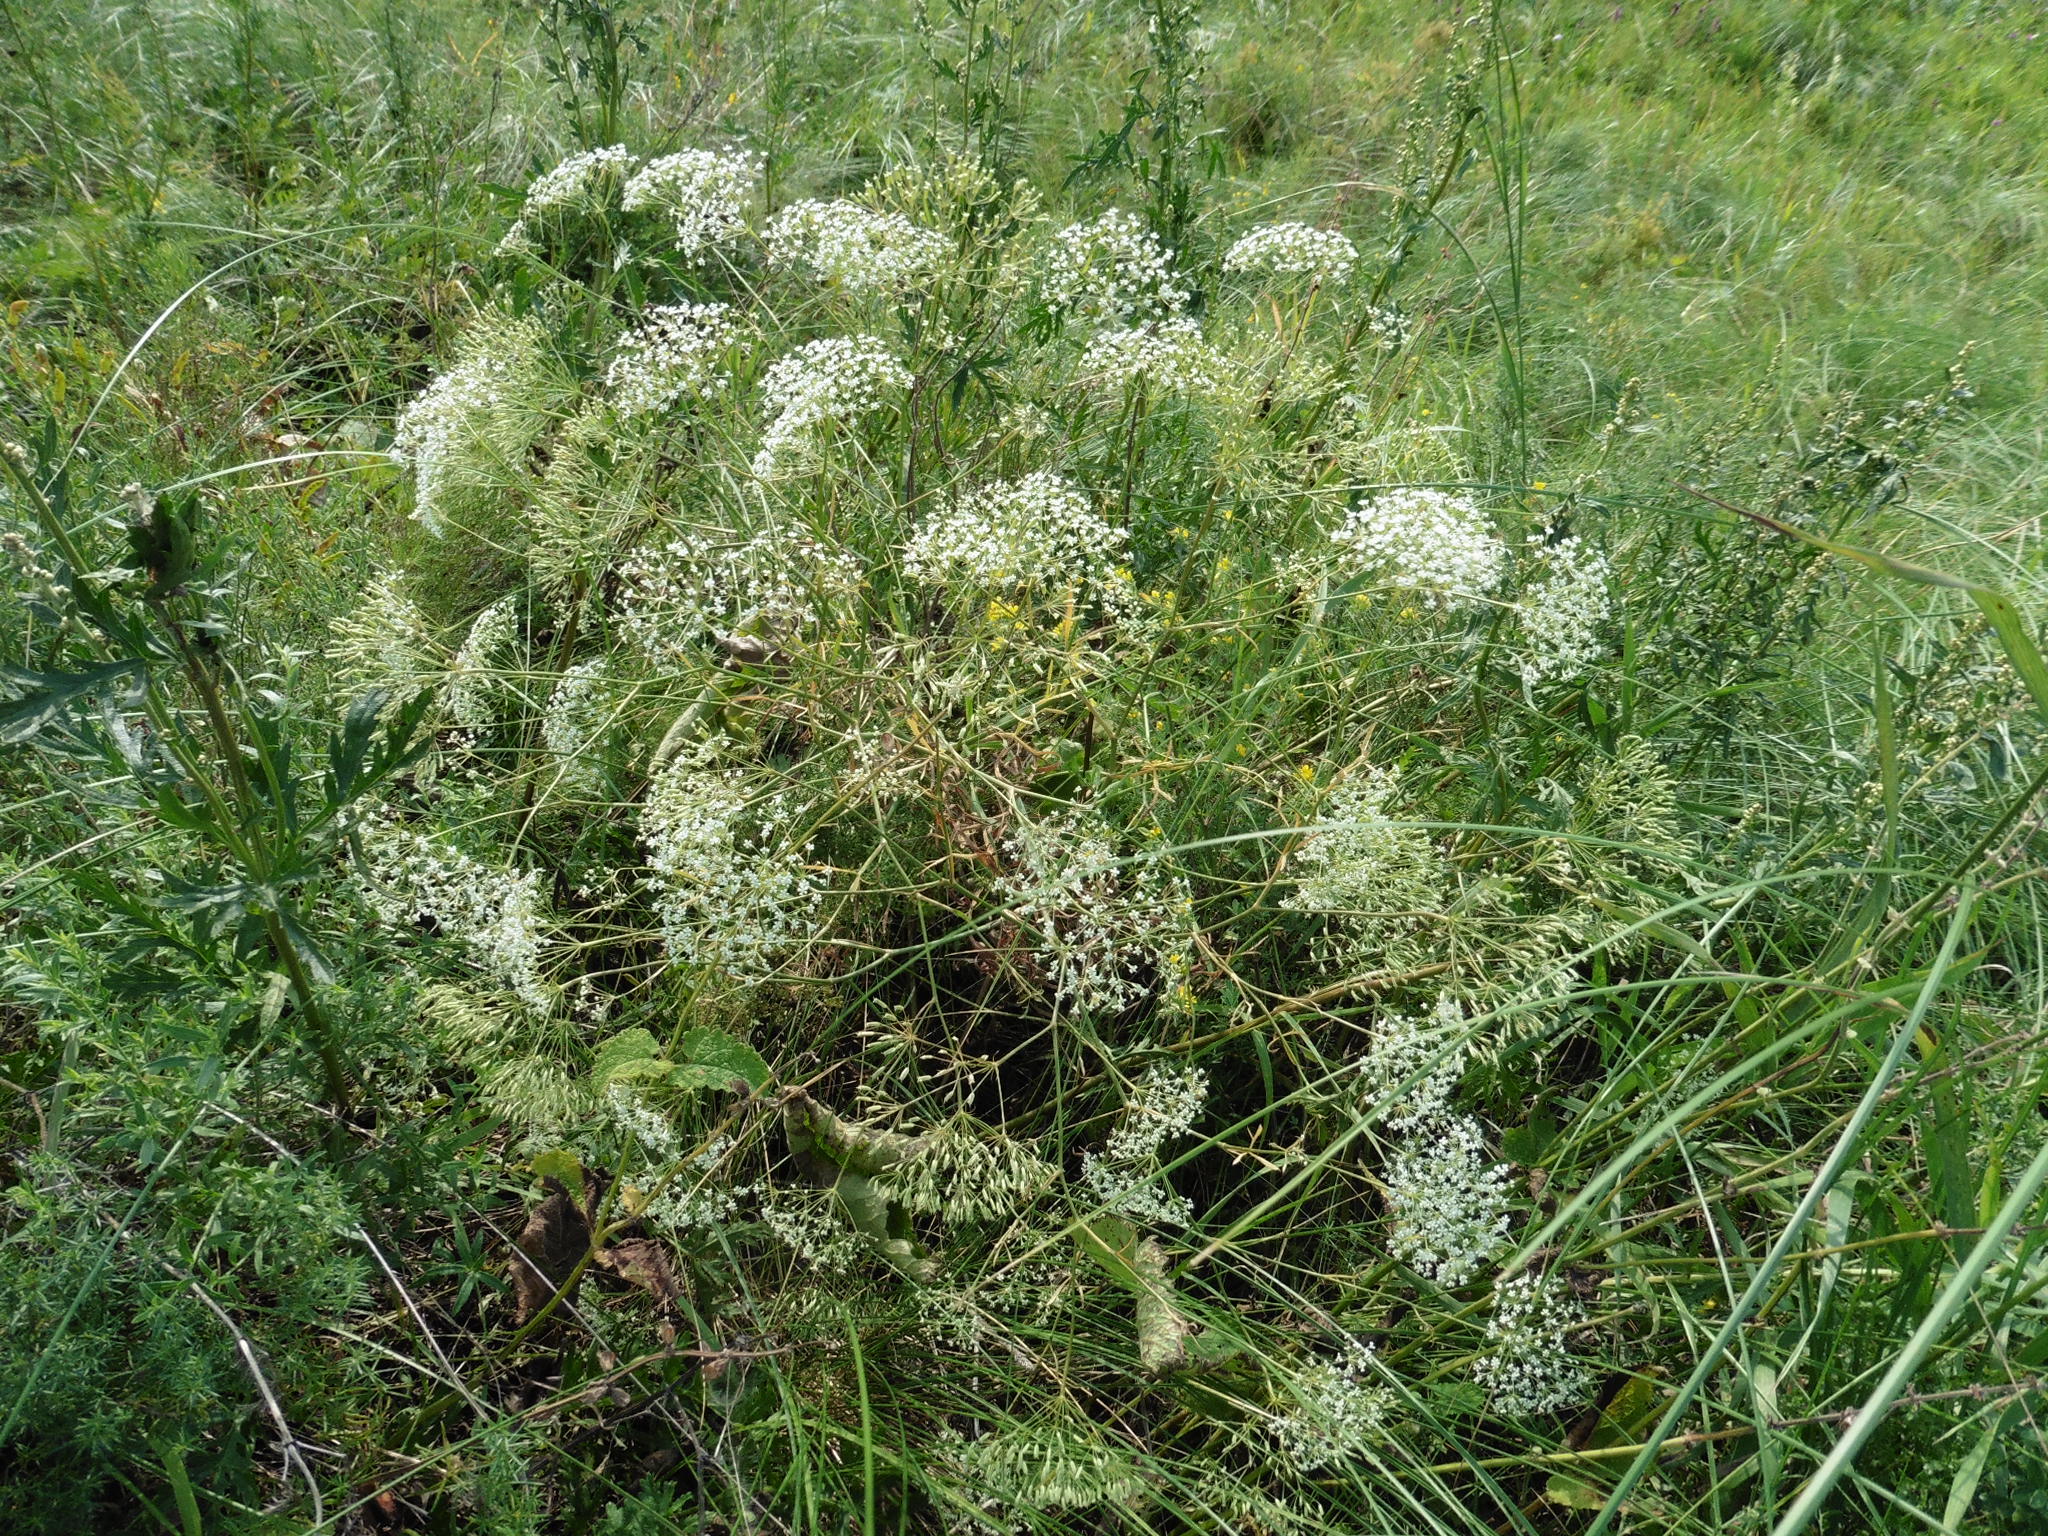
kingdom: Plantae
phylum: Tracheophyta
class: Magnoliopsida
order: Apiales
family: Apiaceae
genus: Falcaria
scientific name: Falcaria vulgaris
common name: Longleaf
